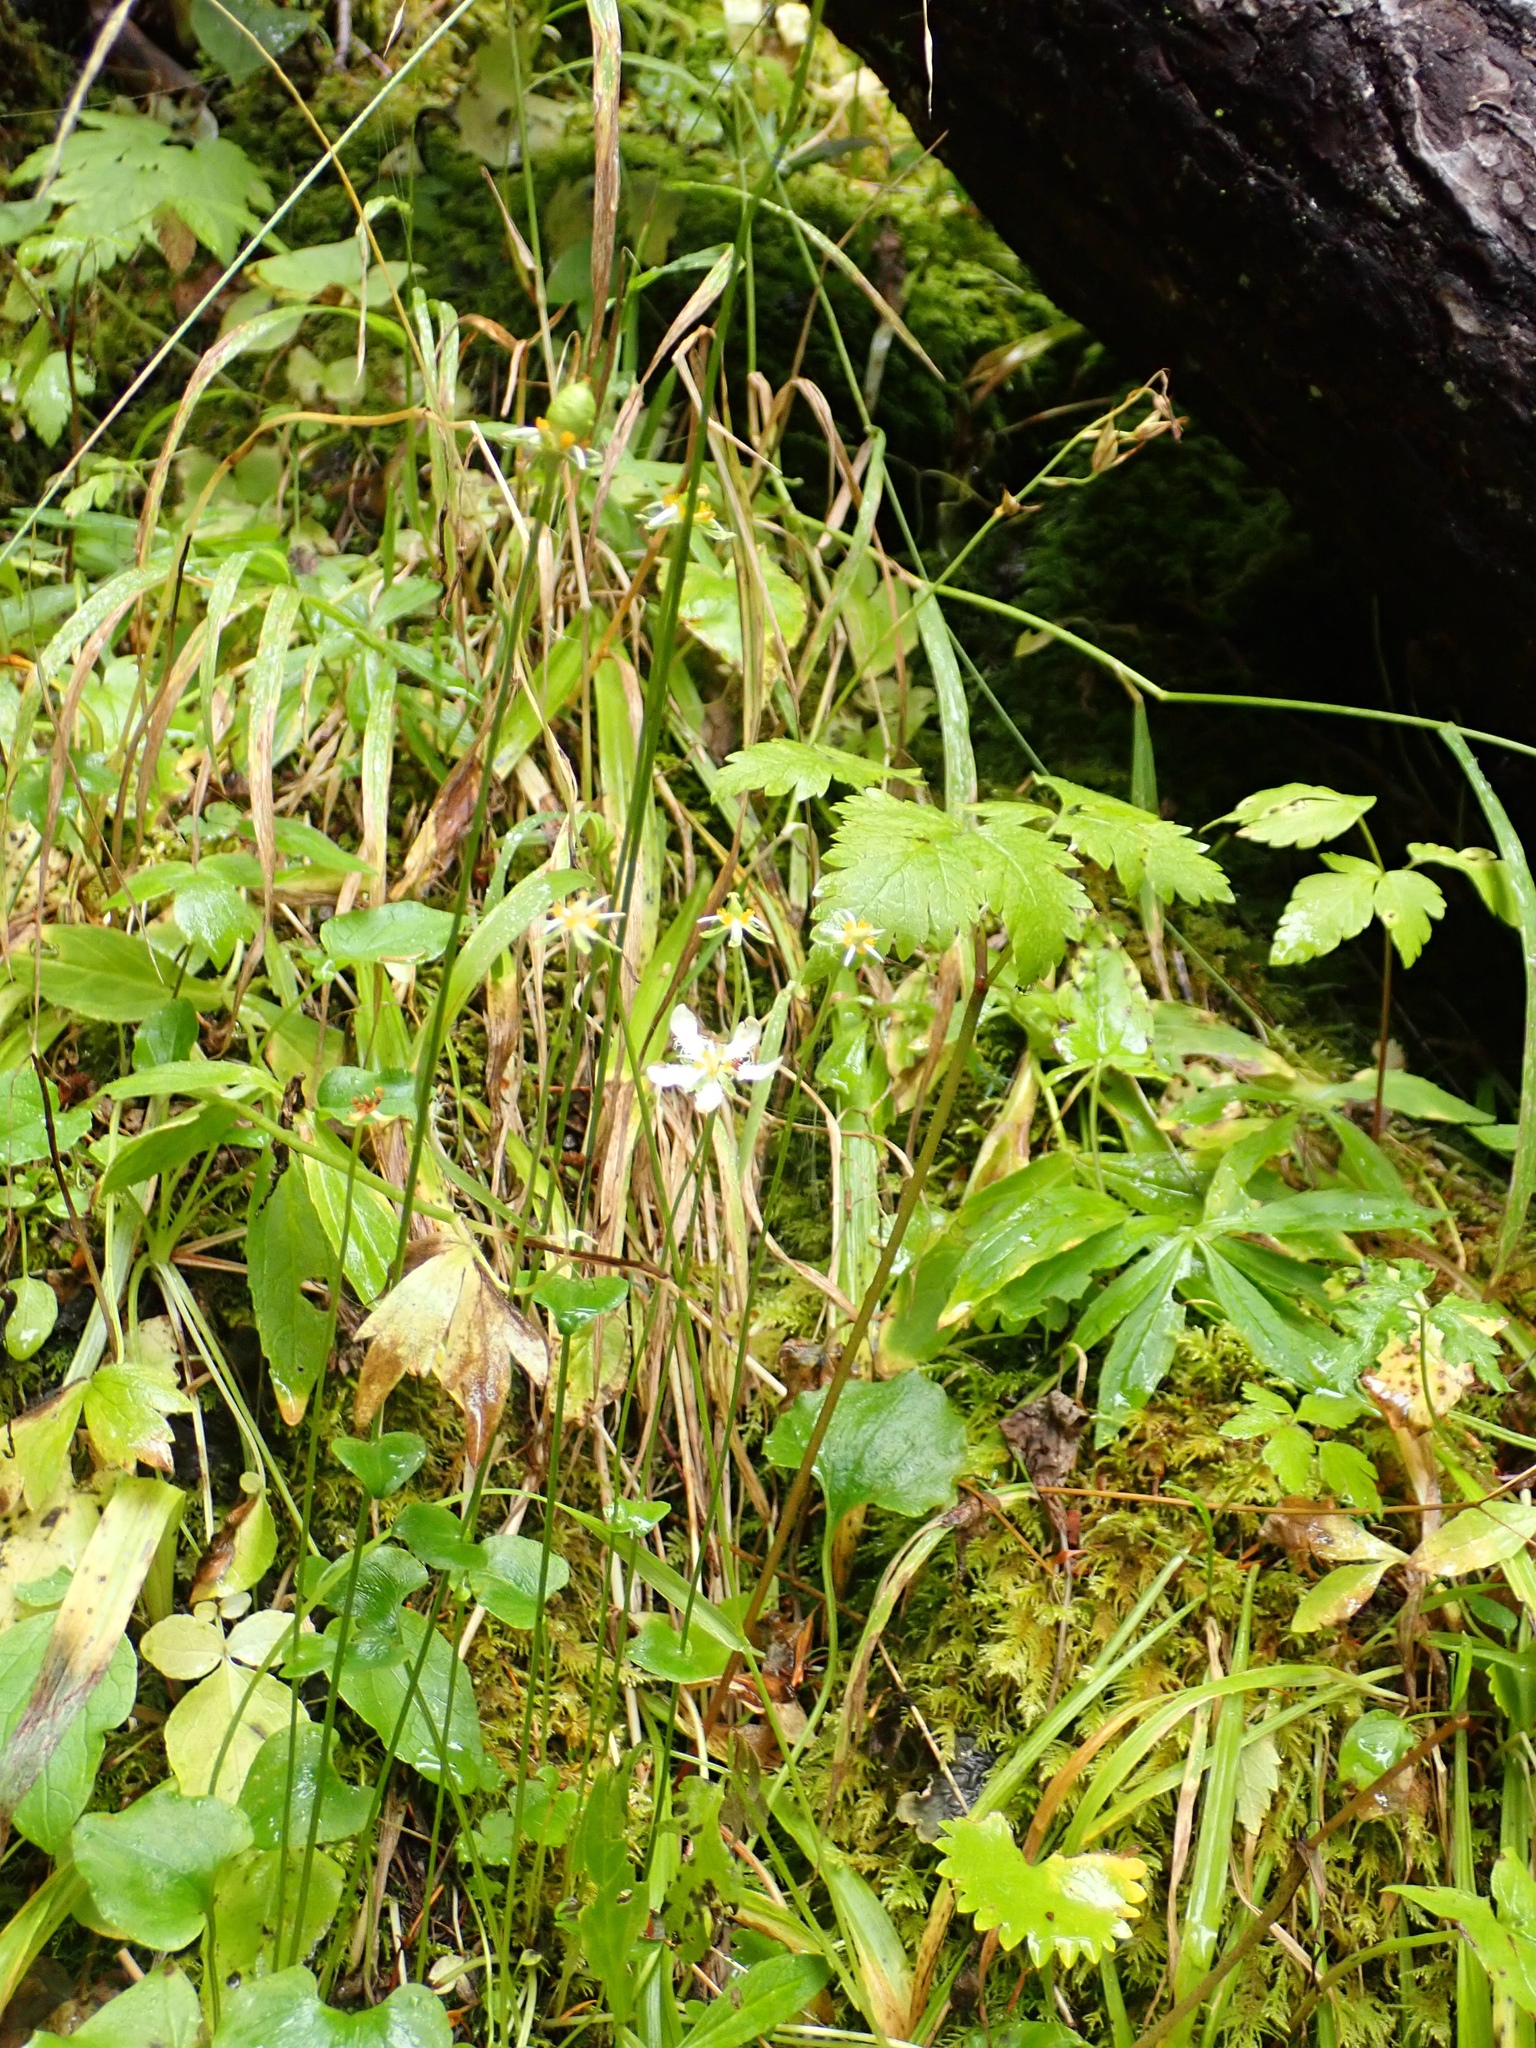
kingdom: Plantae
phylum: Tracheophyta
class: Magnoliopsida
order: Celastrales
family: Parnassiaceae
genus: Parnassia
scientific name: Parnassia fimbriata
